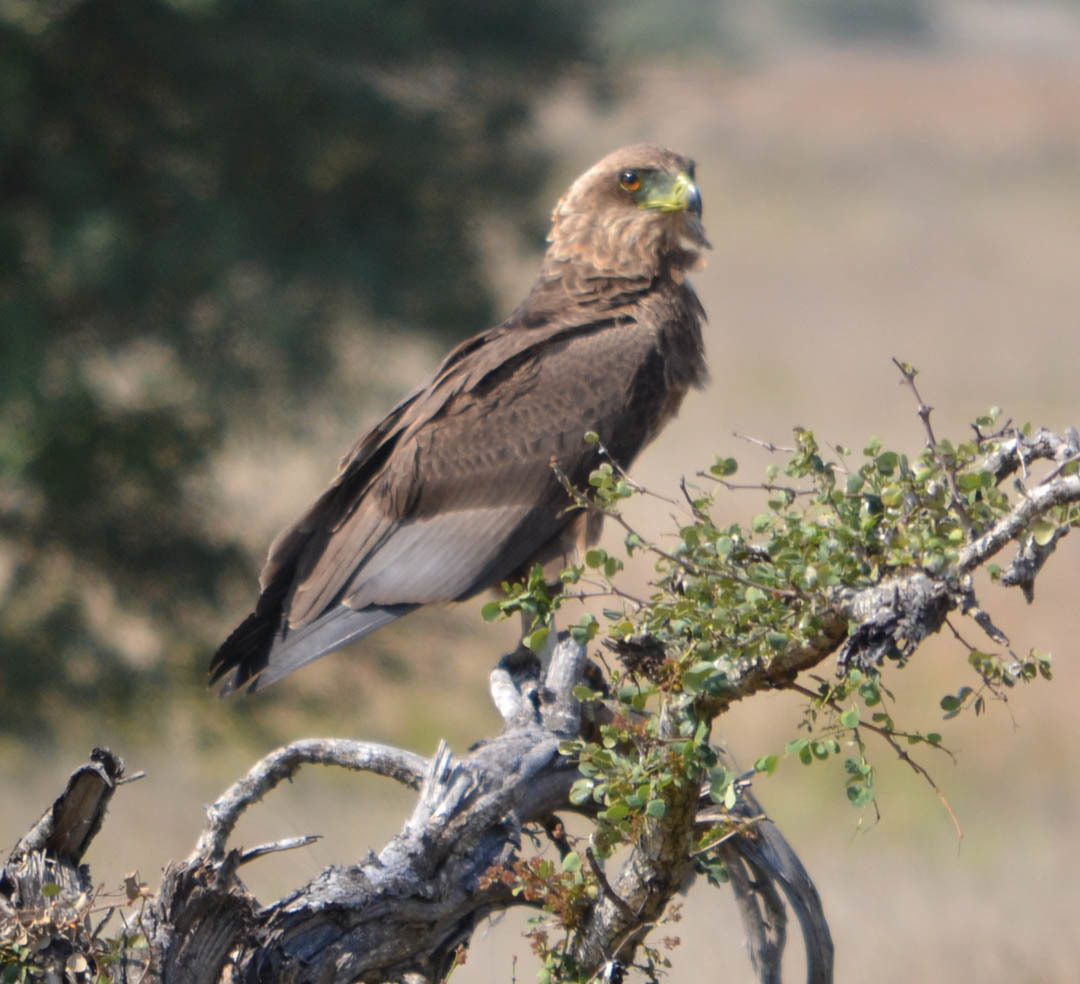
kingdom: Animalia
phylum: Chordata
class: Aves
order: Accipitriformes
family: Accipitridae
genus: Terathopius
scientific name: Terathopius ecaudatus
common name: Bateleur
